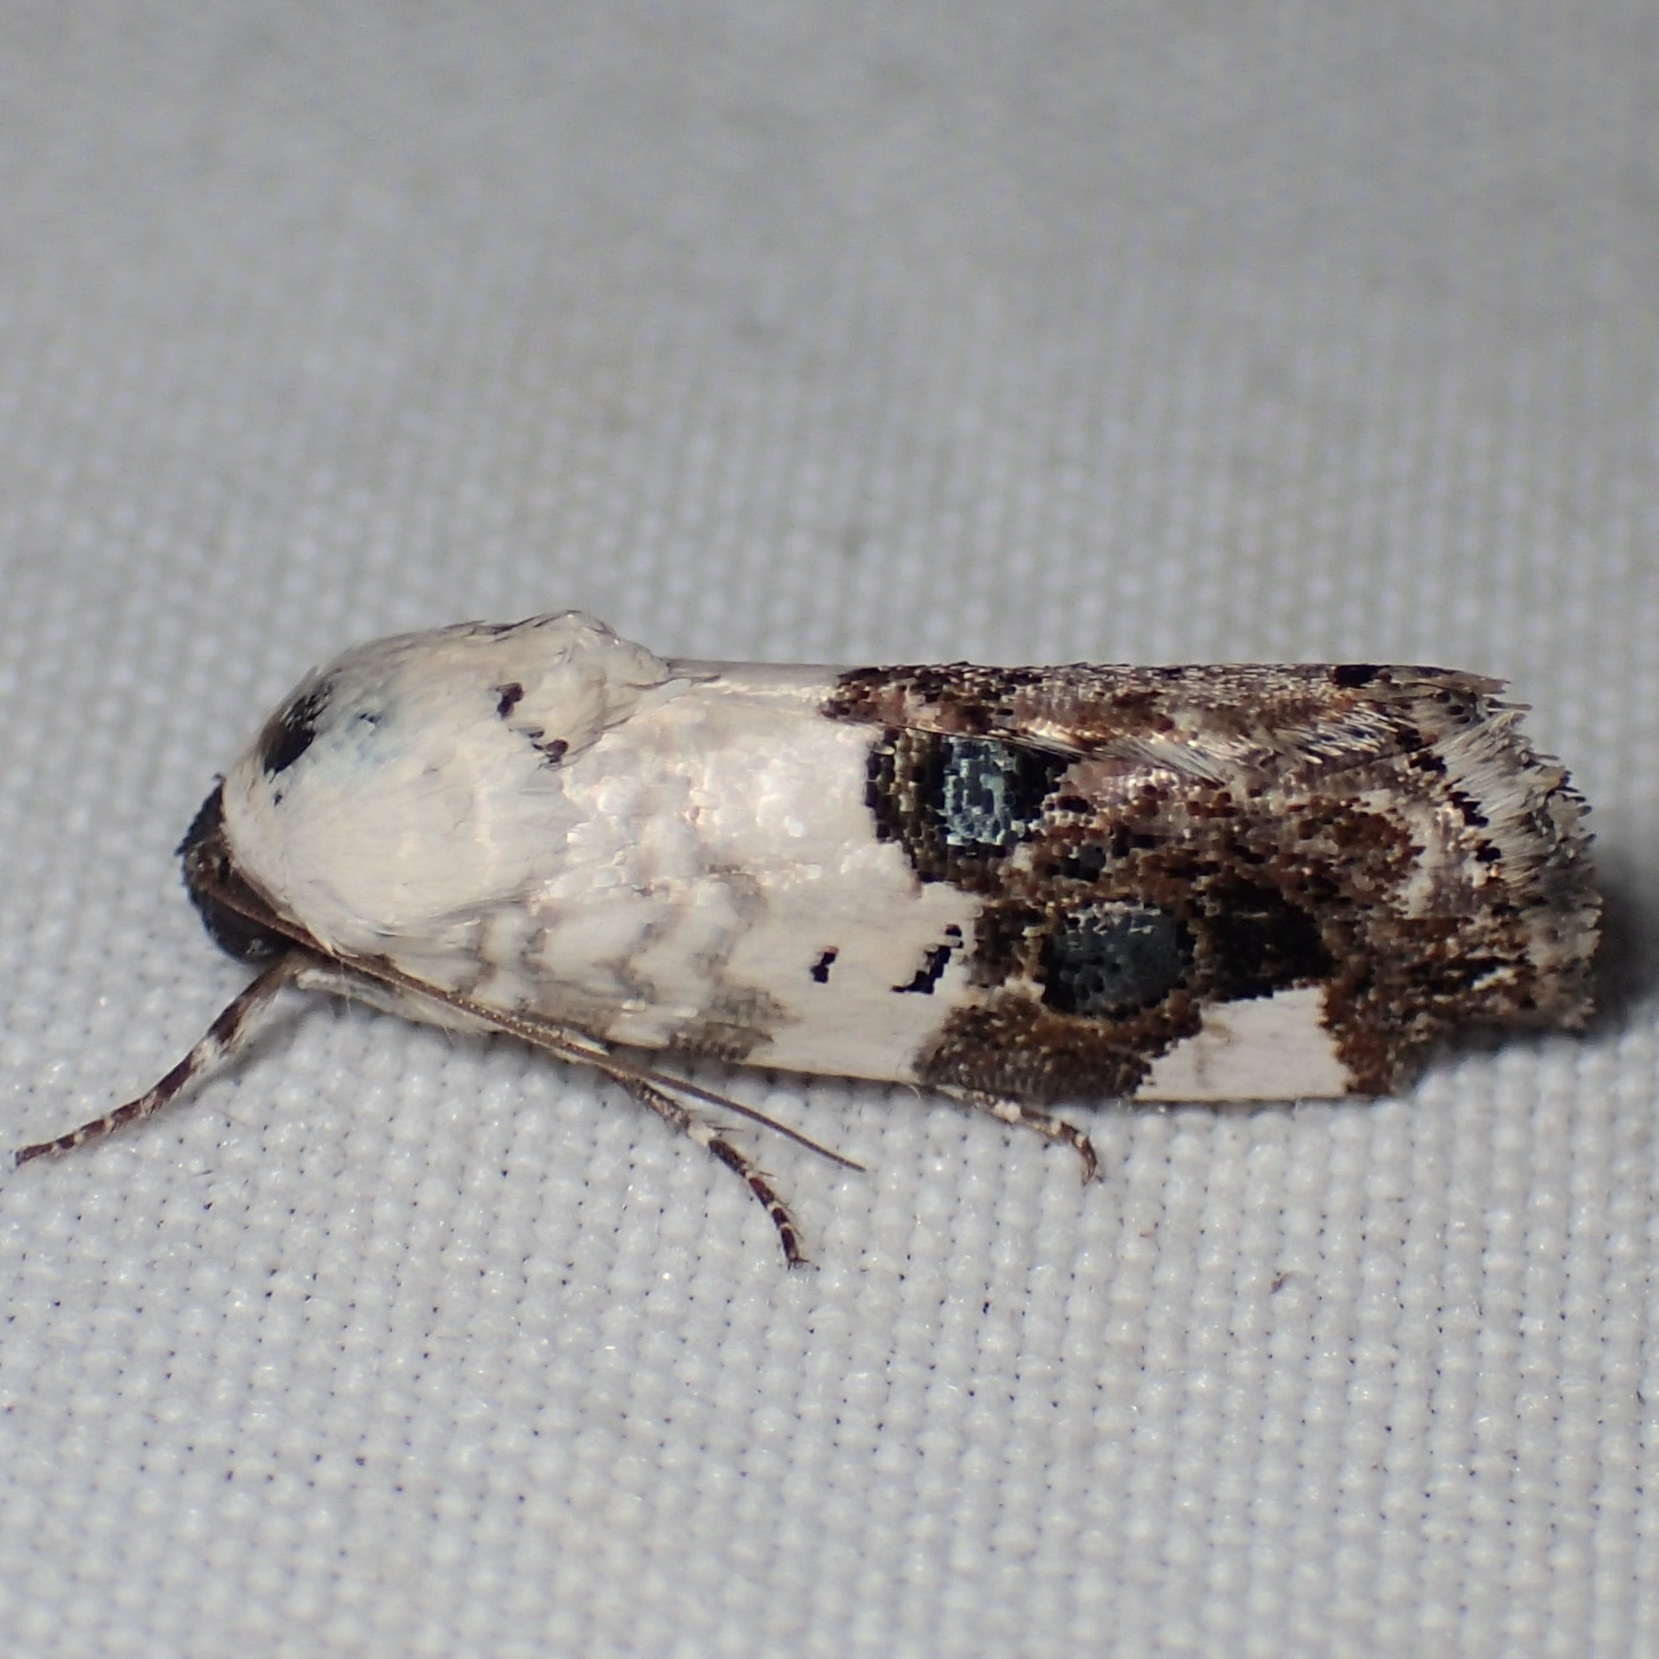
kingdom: Animalia
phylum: Arthropoda
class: Insecta
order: Lepidoptera
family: Noctuidae
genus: Acontia
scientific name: Acontia geminocula
